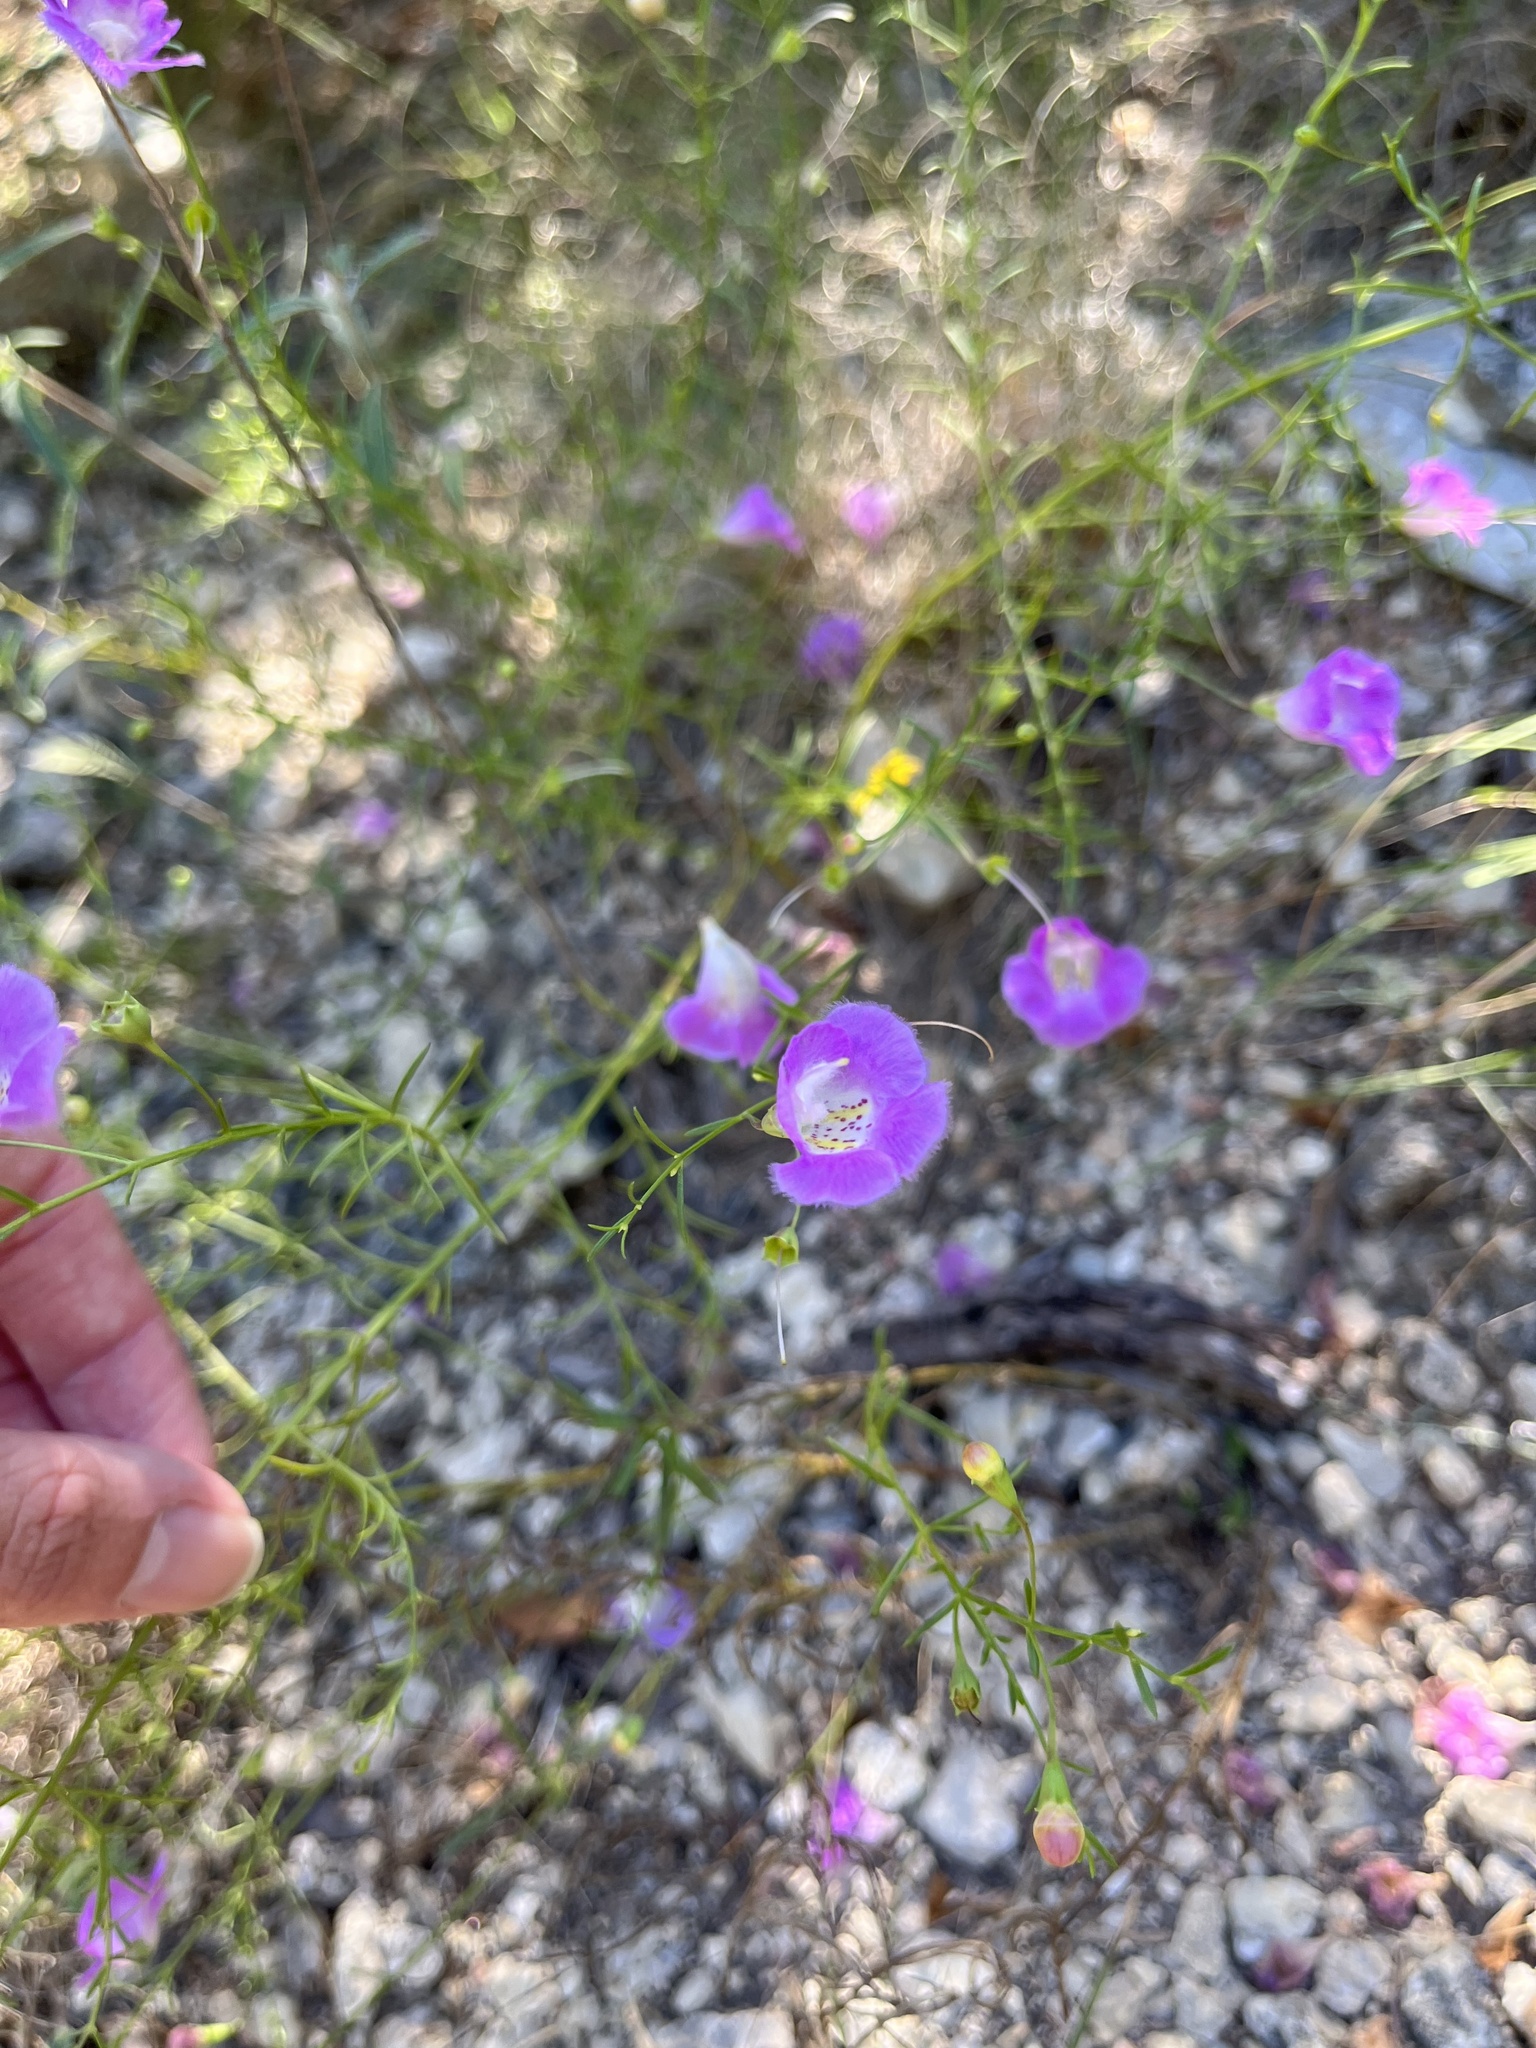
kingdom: Plantae
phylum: Tracheophyta
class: Magnoliopsida
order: Lamiales
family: Orobanchaceae
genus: Agalinis
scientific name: Agalinis edwardsiana
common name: Plateau-gerardia
